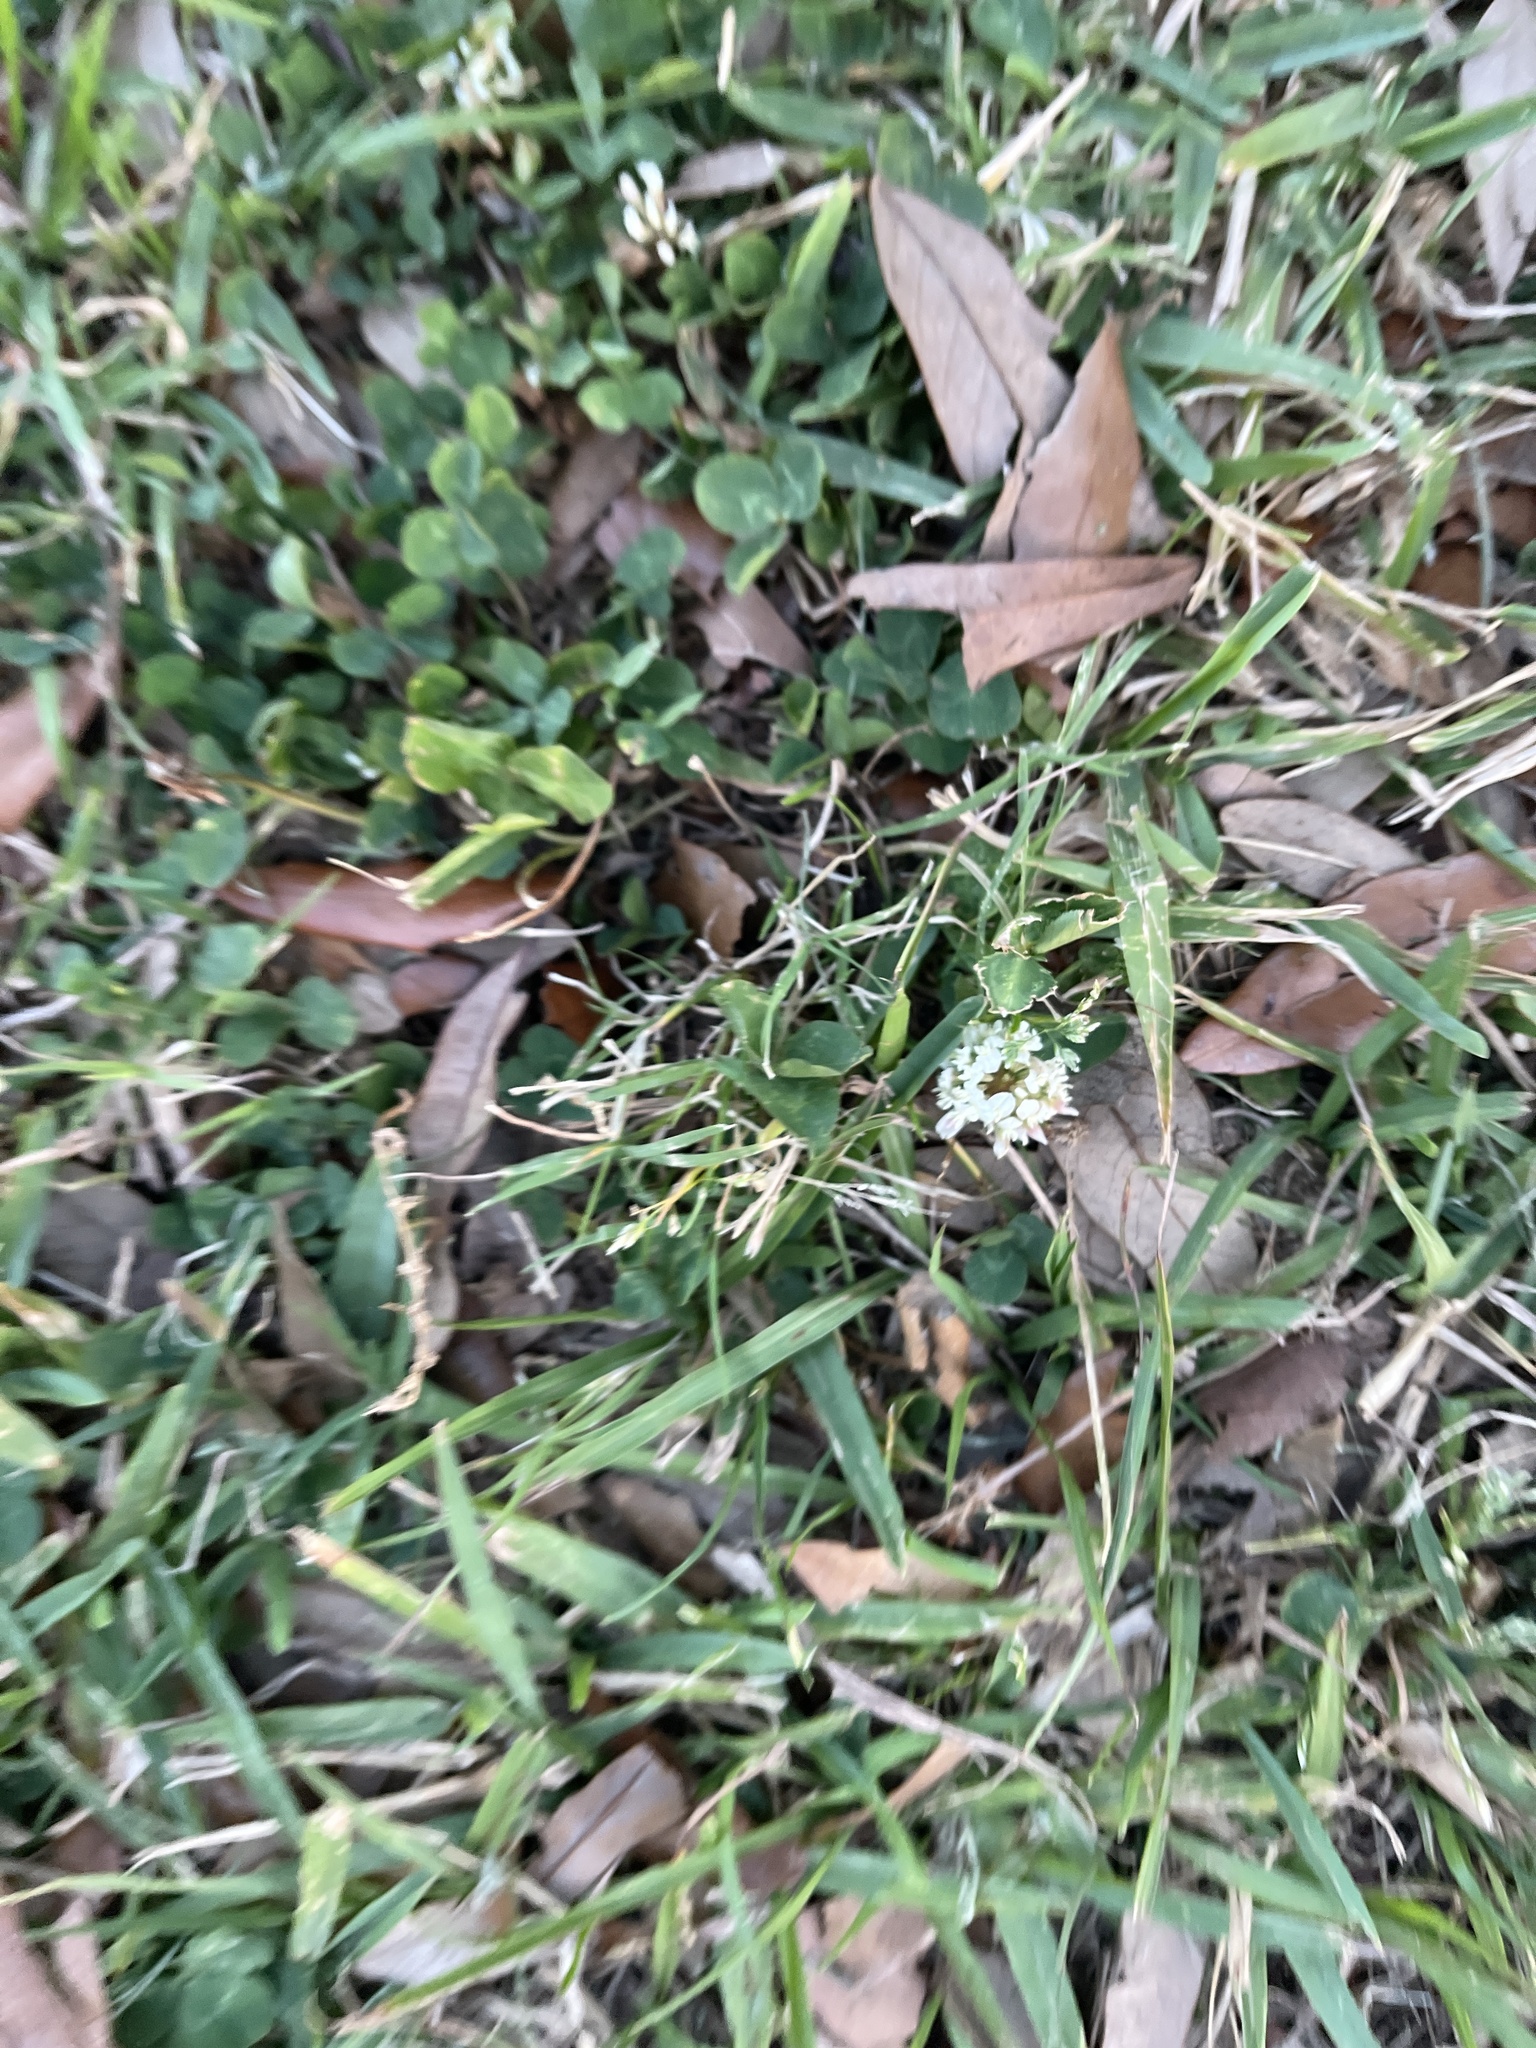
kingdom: Plantae
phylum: Tracheophyta
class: Magnoliopsida
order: Fabales
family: Fabaceae
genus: Trifolium
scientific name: Trifolium repens
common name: White clover
